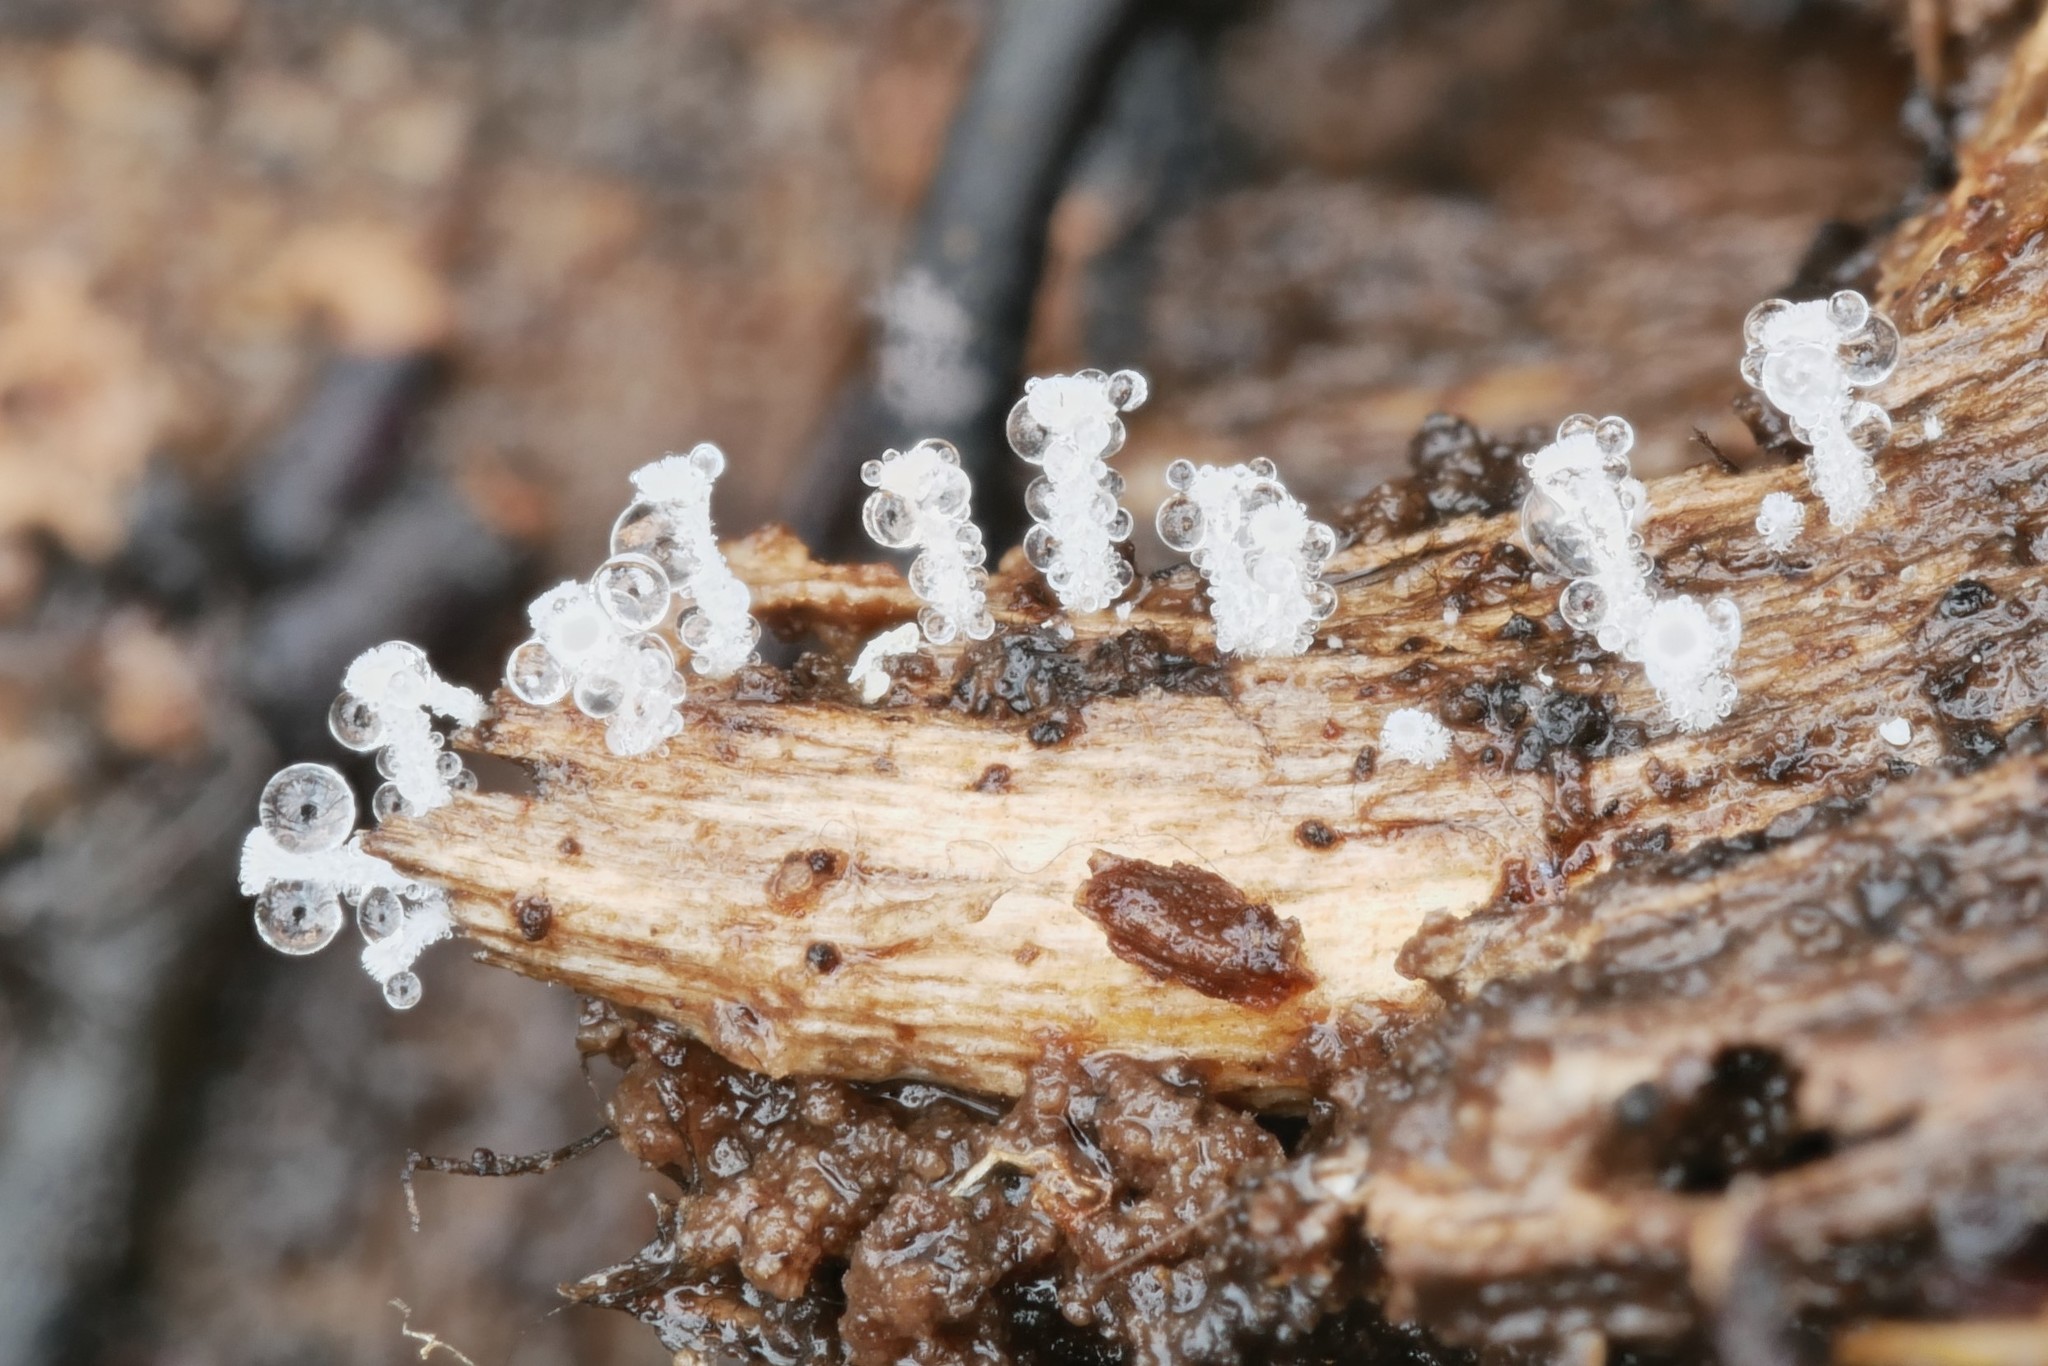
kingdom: Fungi
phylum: Ascomycota
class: Leotiomycetes
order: Helotiales
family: Lachnaceae
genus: Lachnum
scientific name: Lachnum virgineum
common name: Snowy disco
